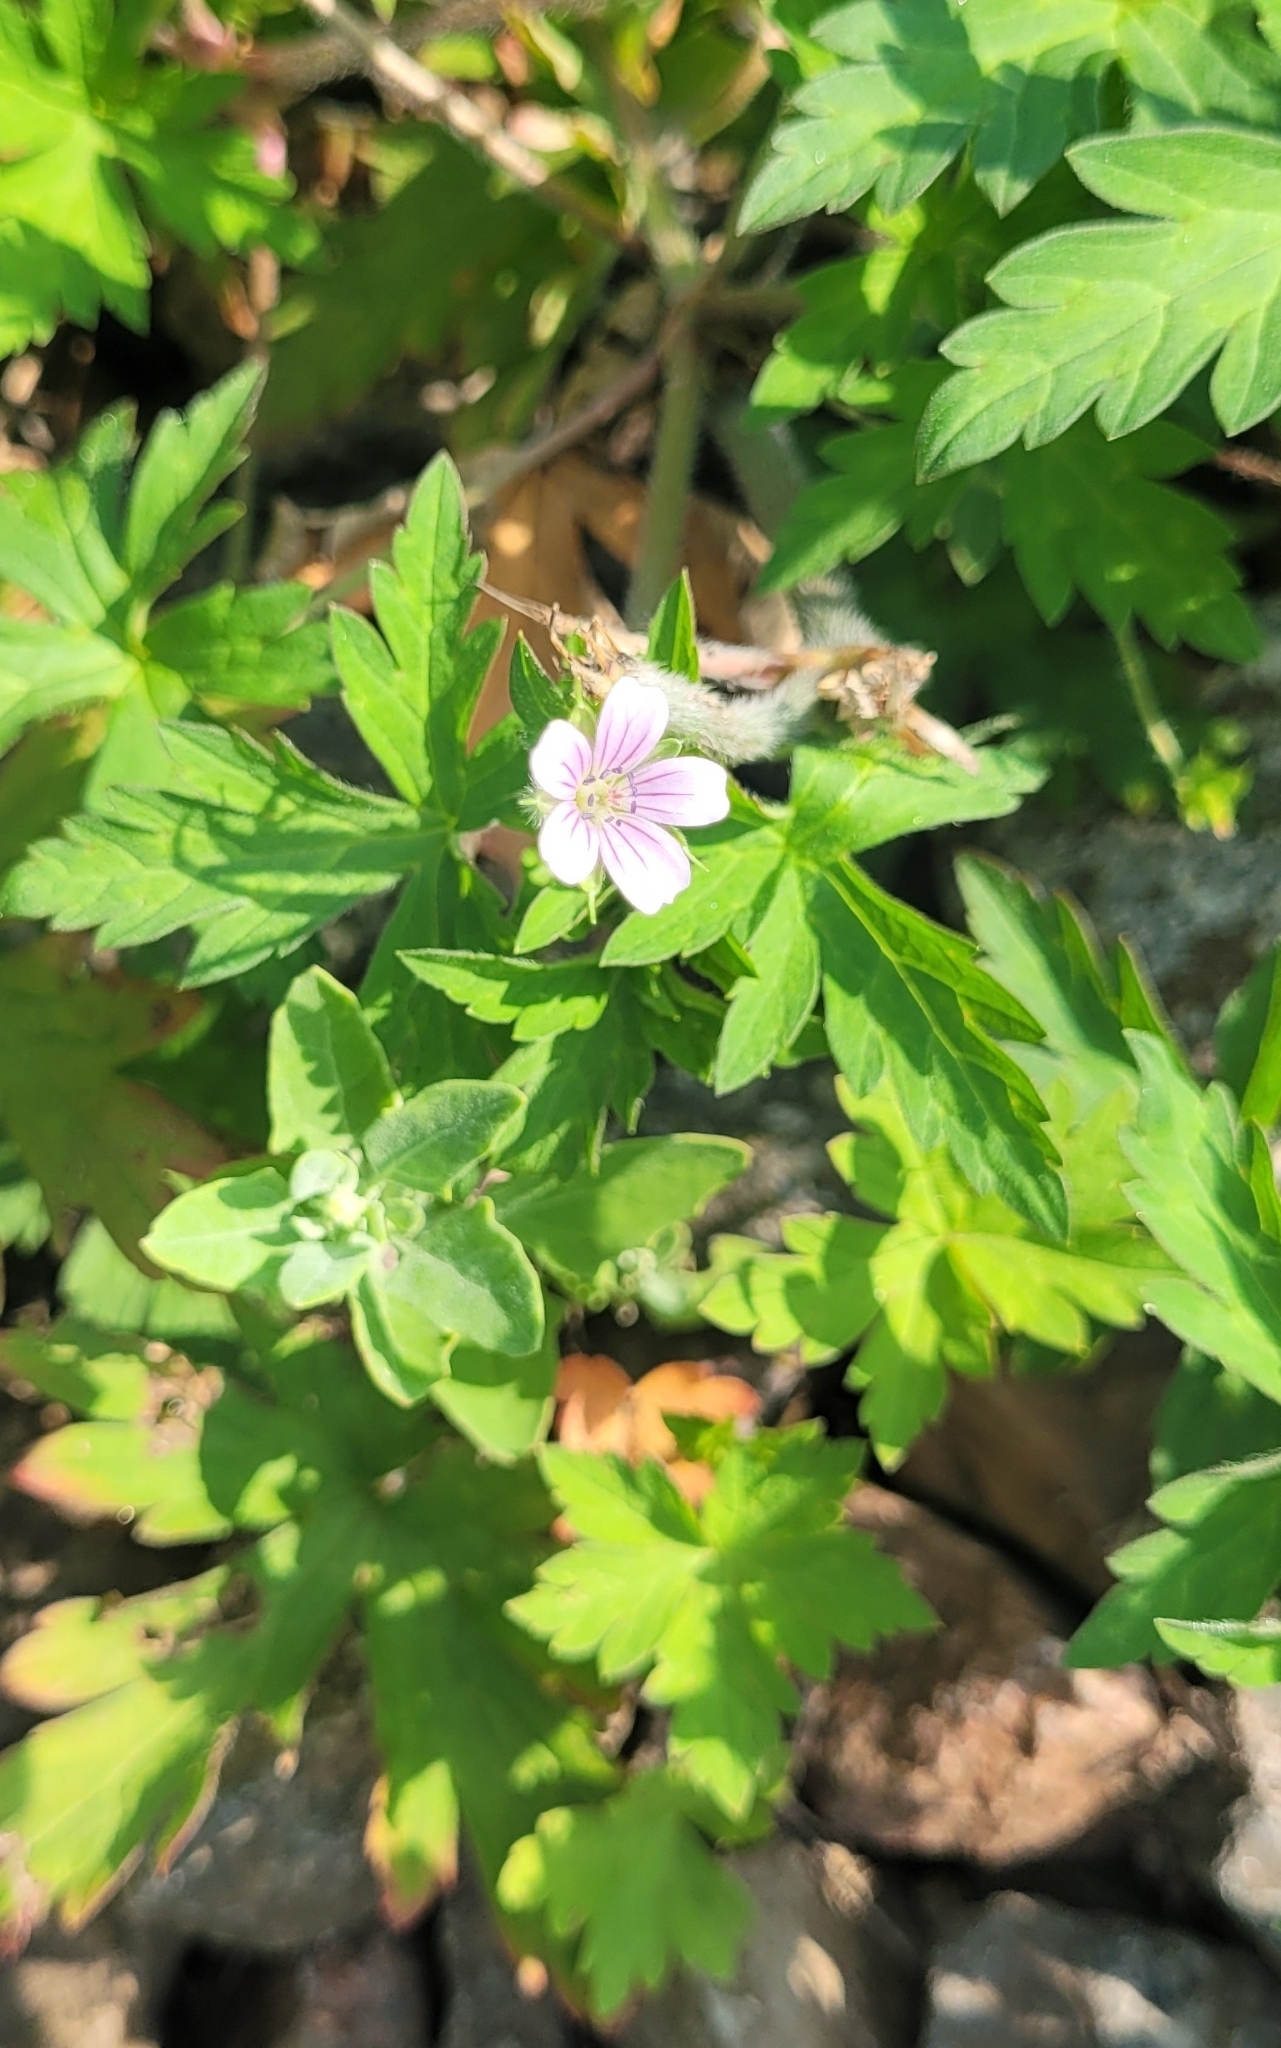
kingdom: Plantae
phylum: Tracheophyta
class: Magnoliopsida
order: Geraniales
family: Geraniaceae
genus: Geranium
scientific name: Geranium sibiricum
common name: Siberian crane's-bill
